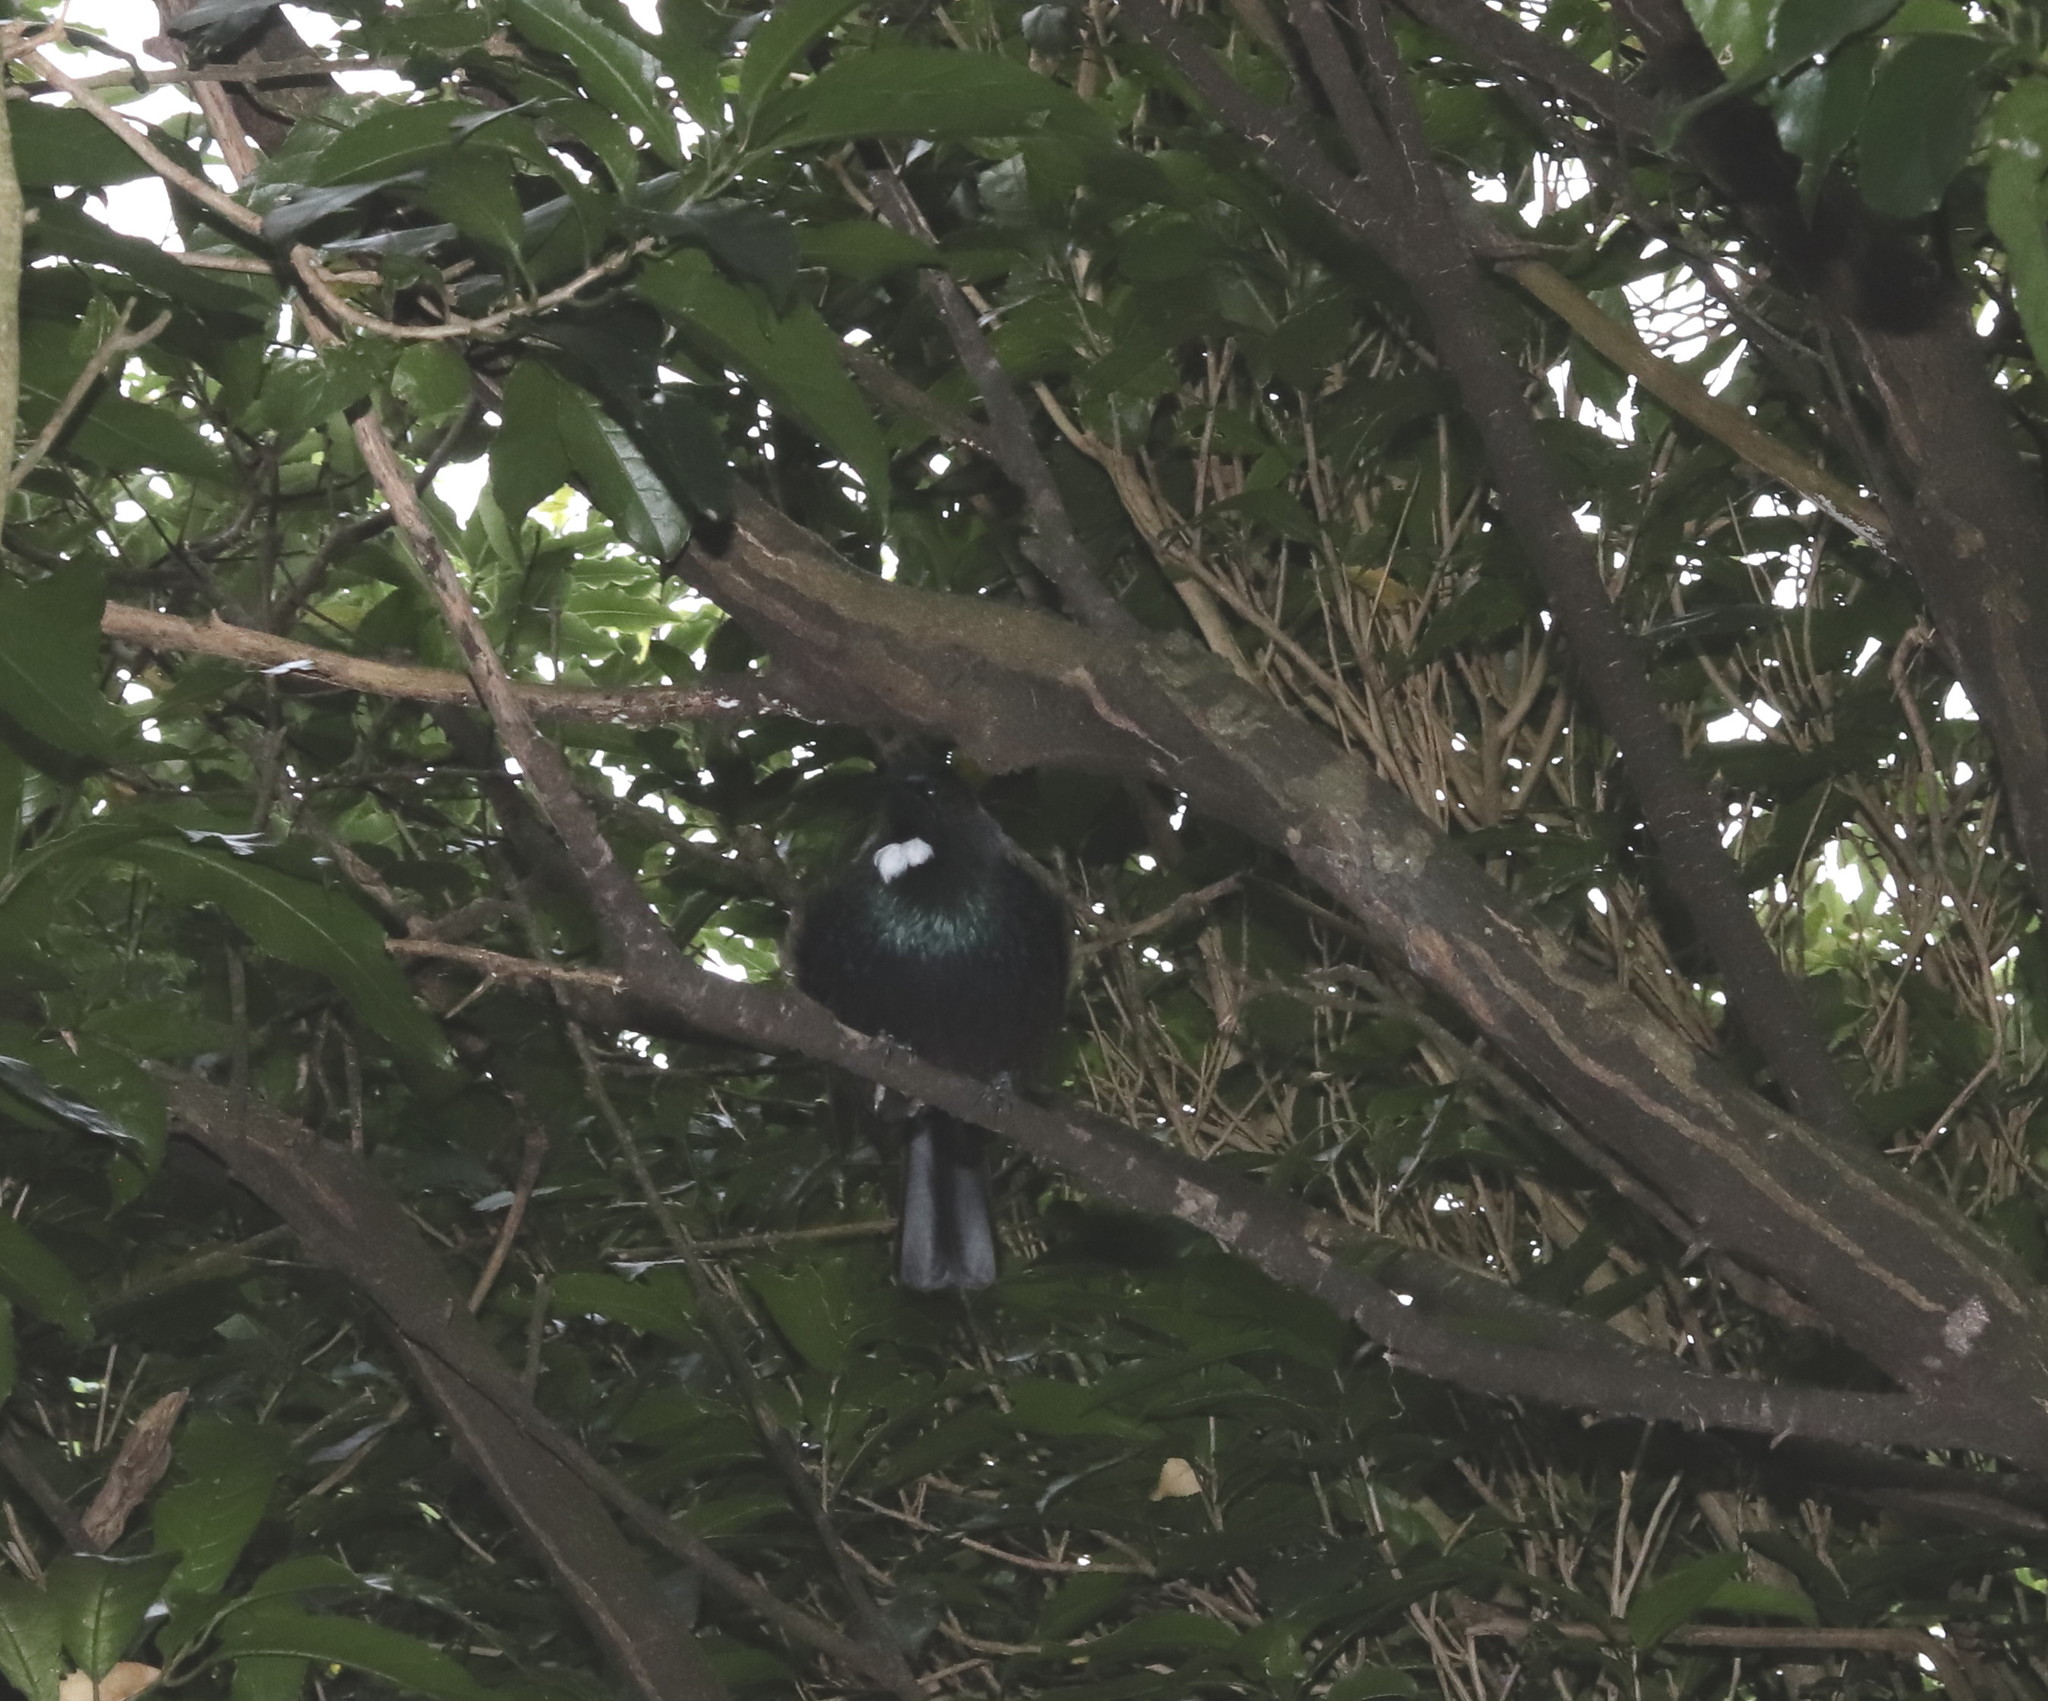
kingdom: Animalia
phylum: Chordata
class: Aves
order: Passeriformes
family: Meliphagidae
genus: Prosthemadera
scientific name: Prosthemadera novaeseelandiae
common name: Tui
